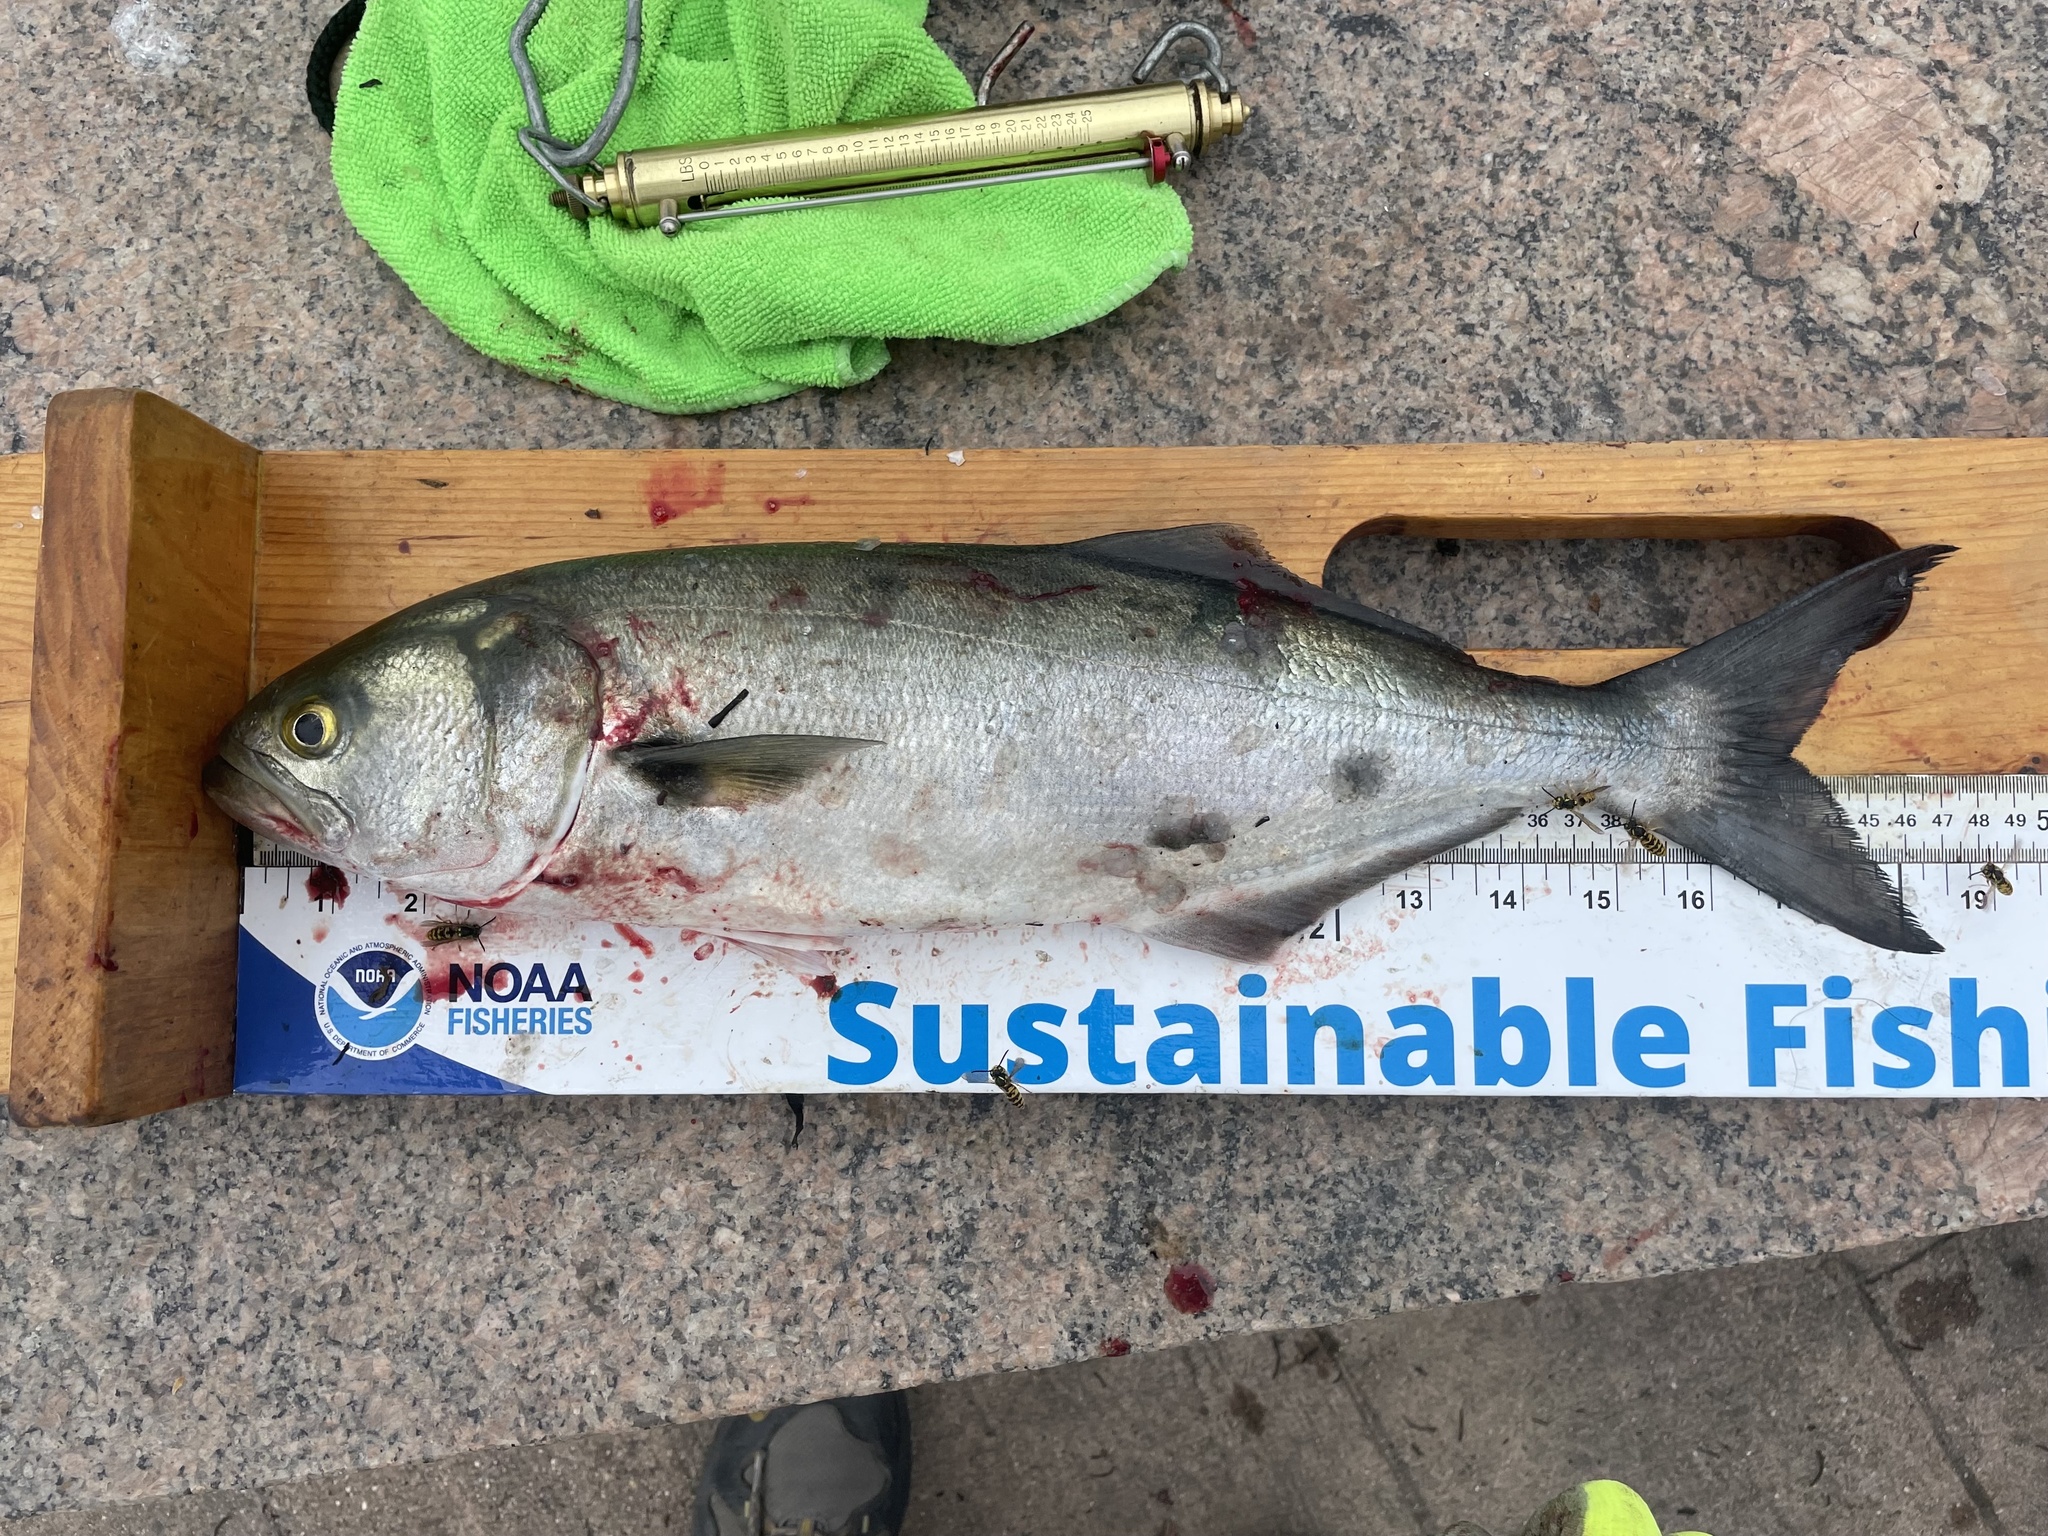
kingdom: Animalia
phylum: Chordata
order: Perciformes
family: Pomatomidae
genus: Pomatomus
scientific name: Pomatomus saltatrix
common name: Bluefish
